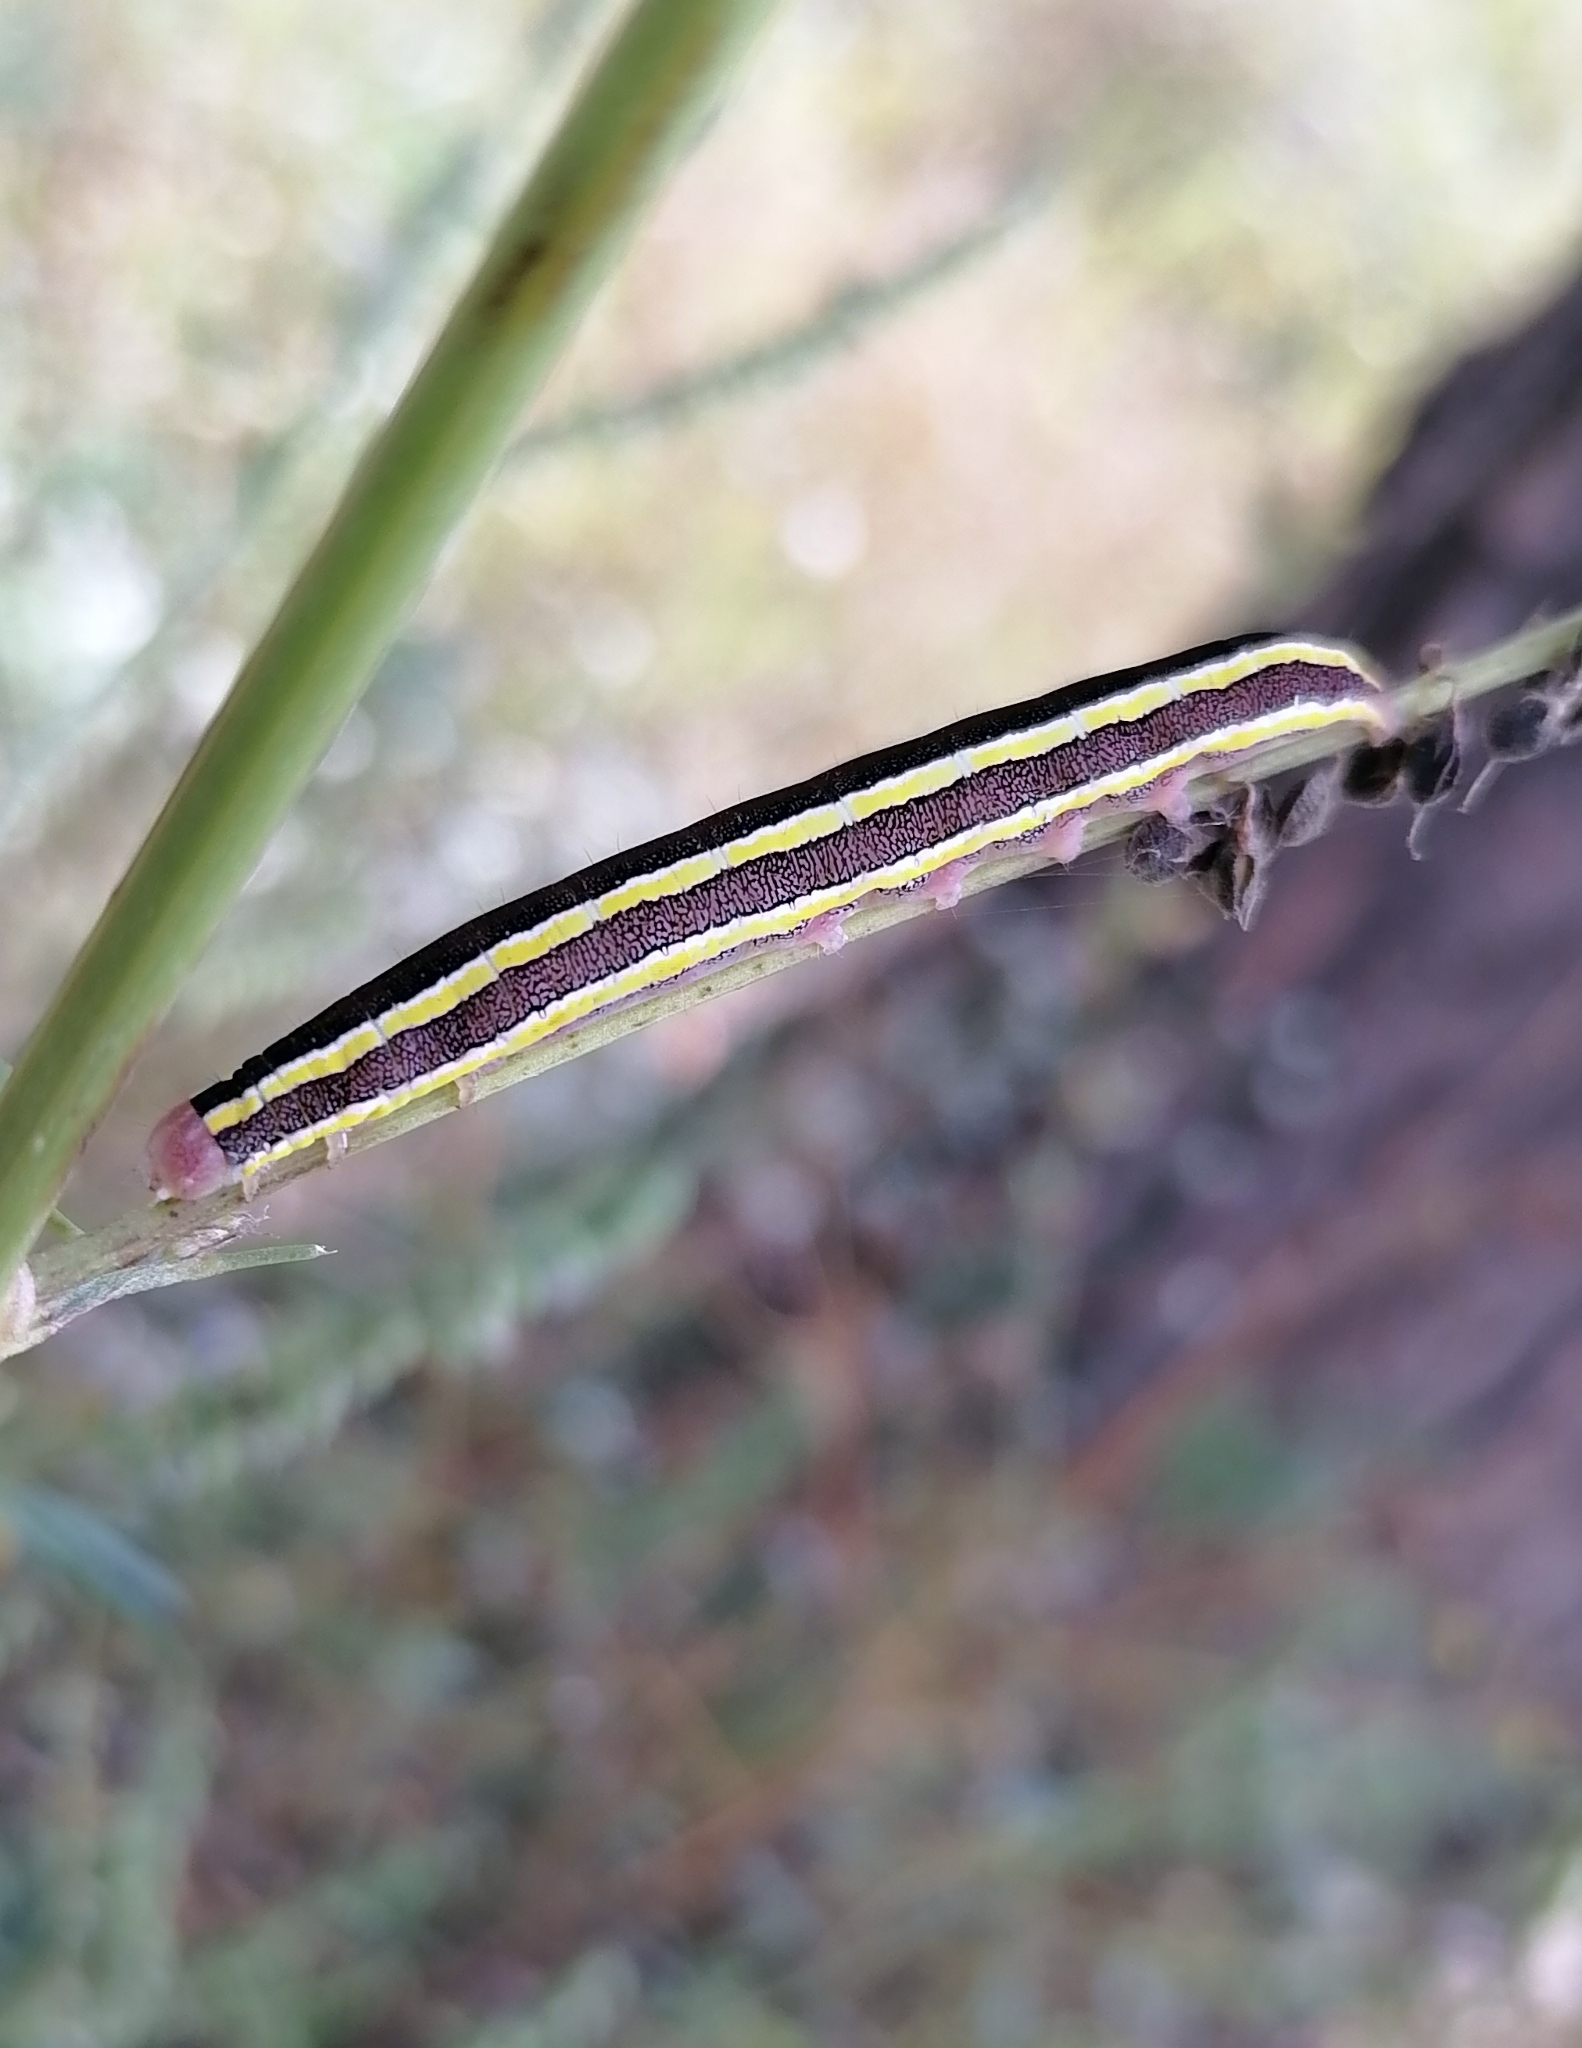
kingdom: Animalia
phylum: Arthropoda
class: Insecta
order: Lepidoptera
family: Noctuidae
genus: Ceramica
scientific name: Ceramica pisi
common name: Broom moth
